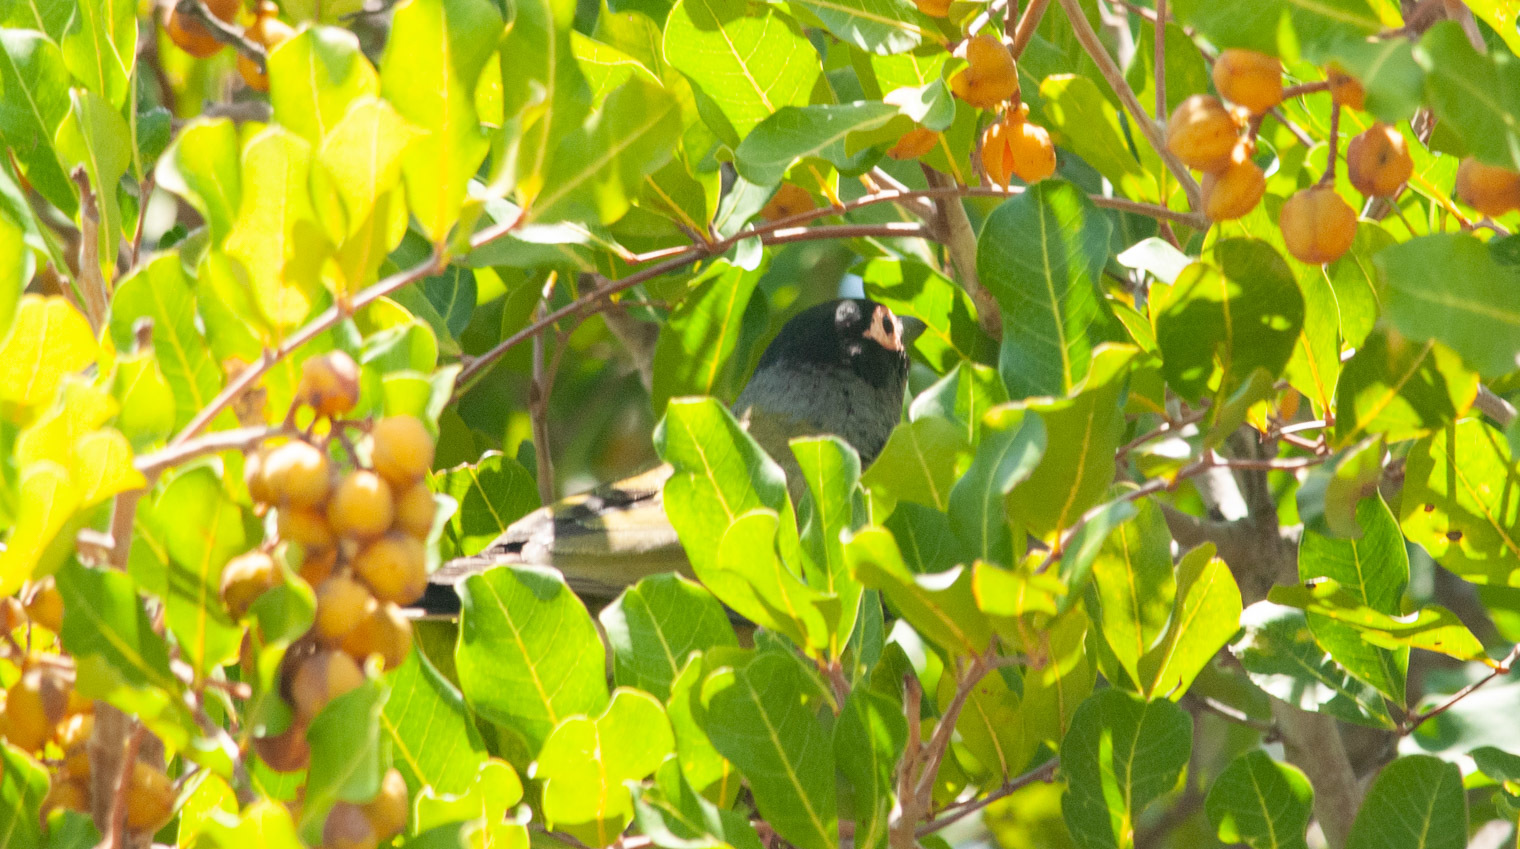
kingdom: Animalia
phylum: Chordata
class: Aves
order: Passeriformes
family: Oriolidae
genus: Sphecotheres
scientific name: Sphecotheres vieilloti
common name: Australasian figbird
